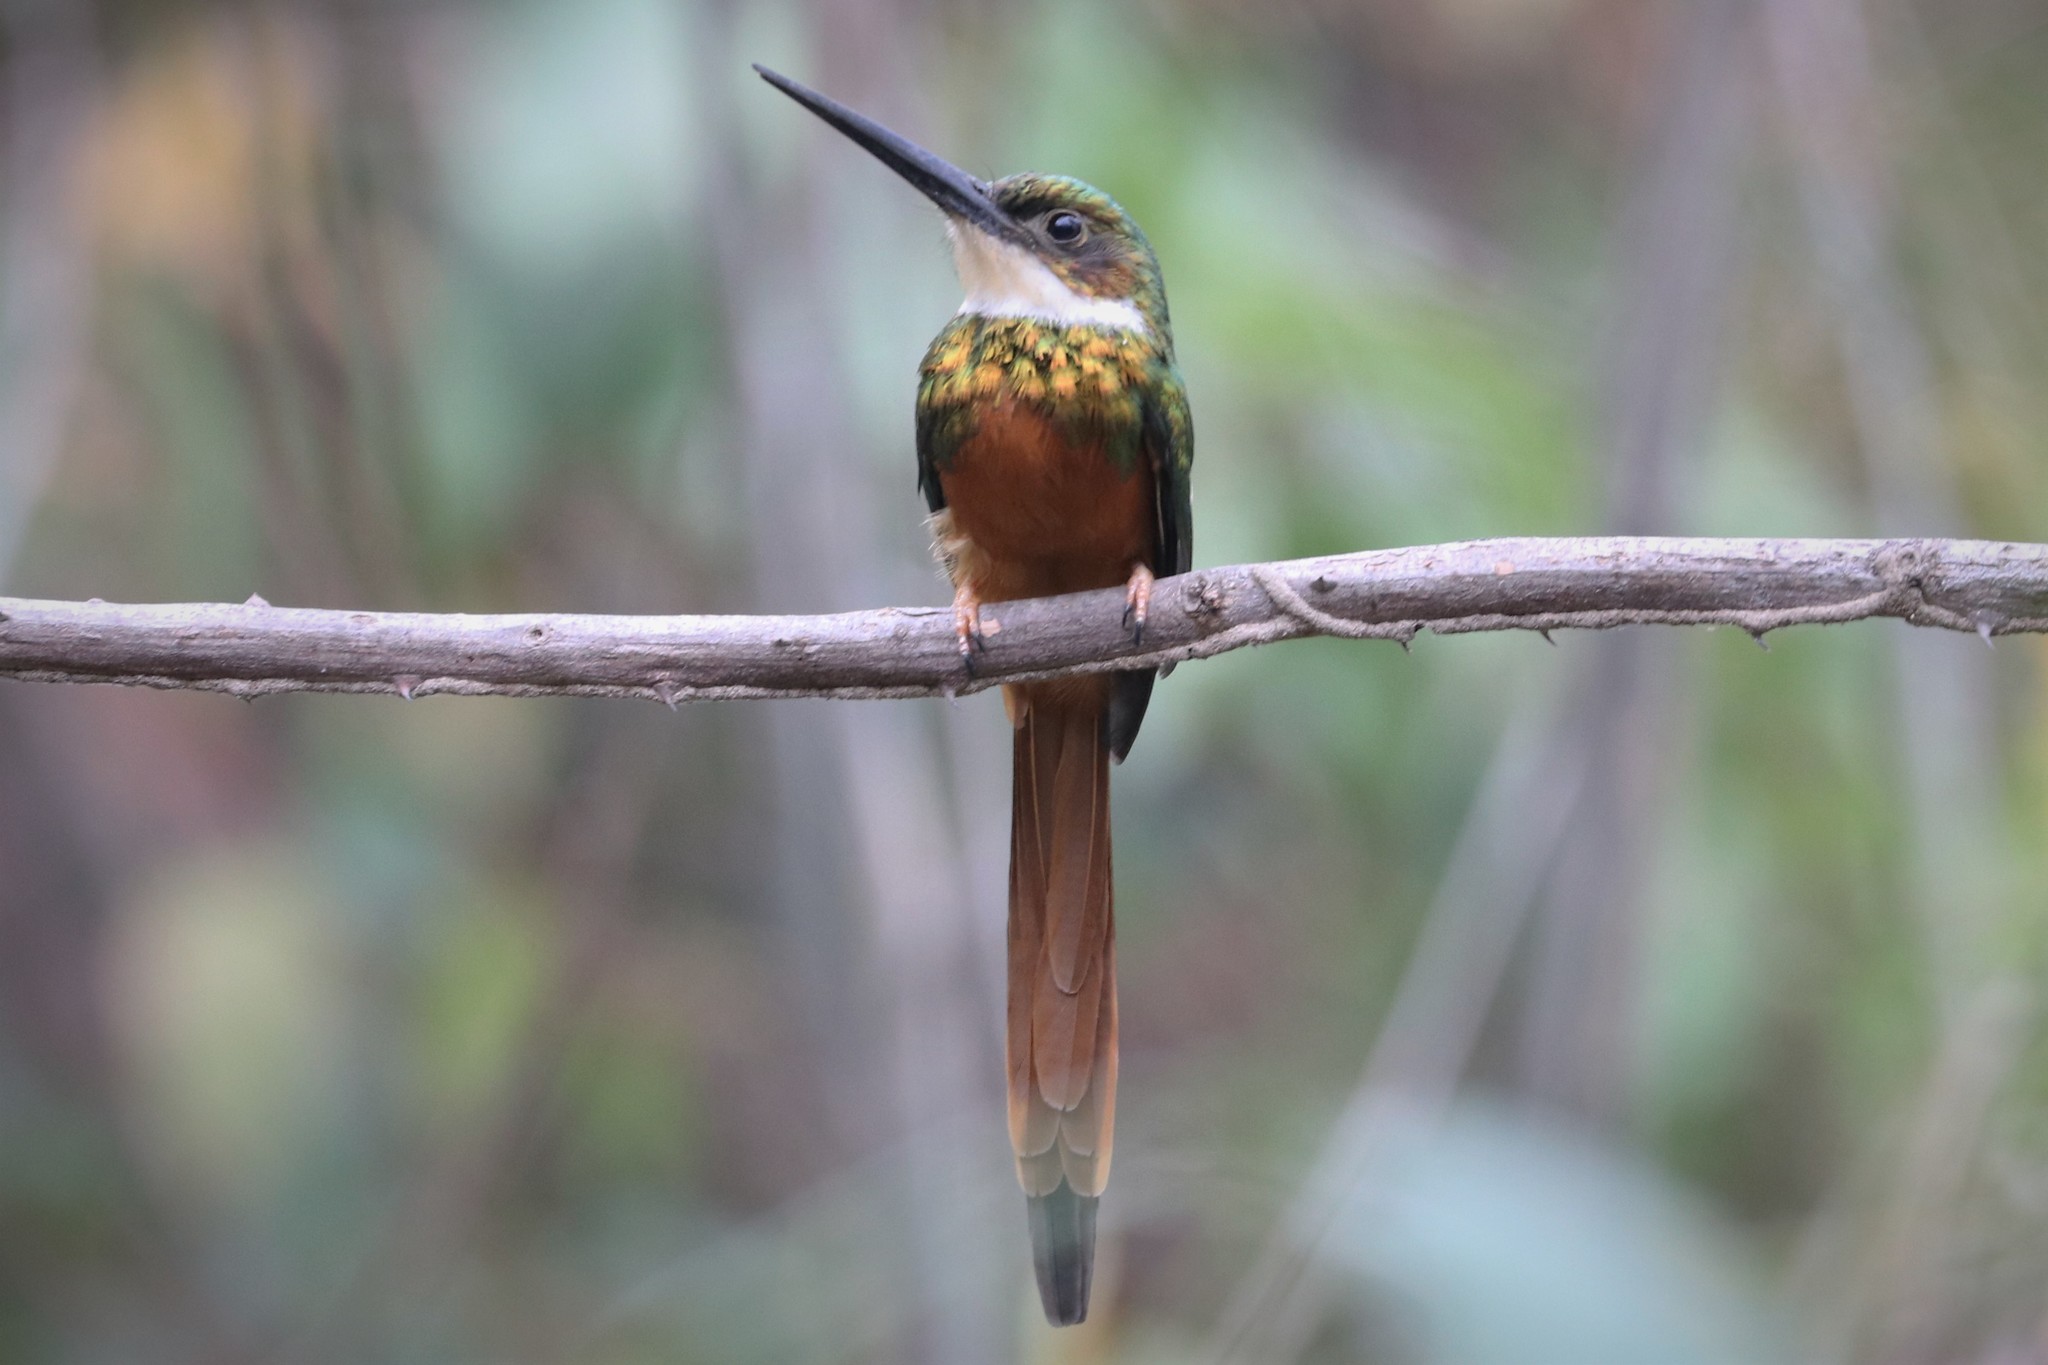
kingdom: Animalia
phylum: Chordata
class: Aves
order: Piciformes
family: Galbulidae
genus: Galbula
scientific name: Galbula ruficauda
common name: Rufous-tailed jacamar
